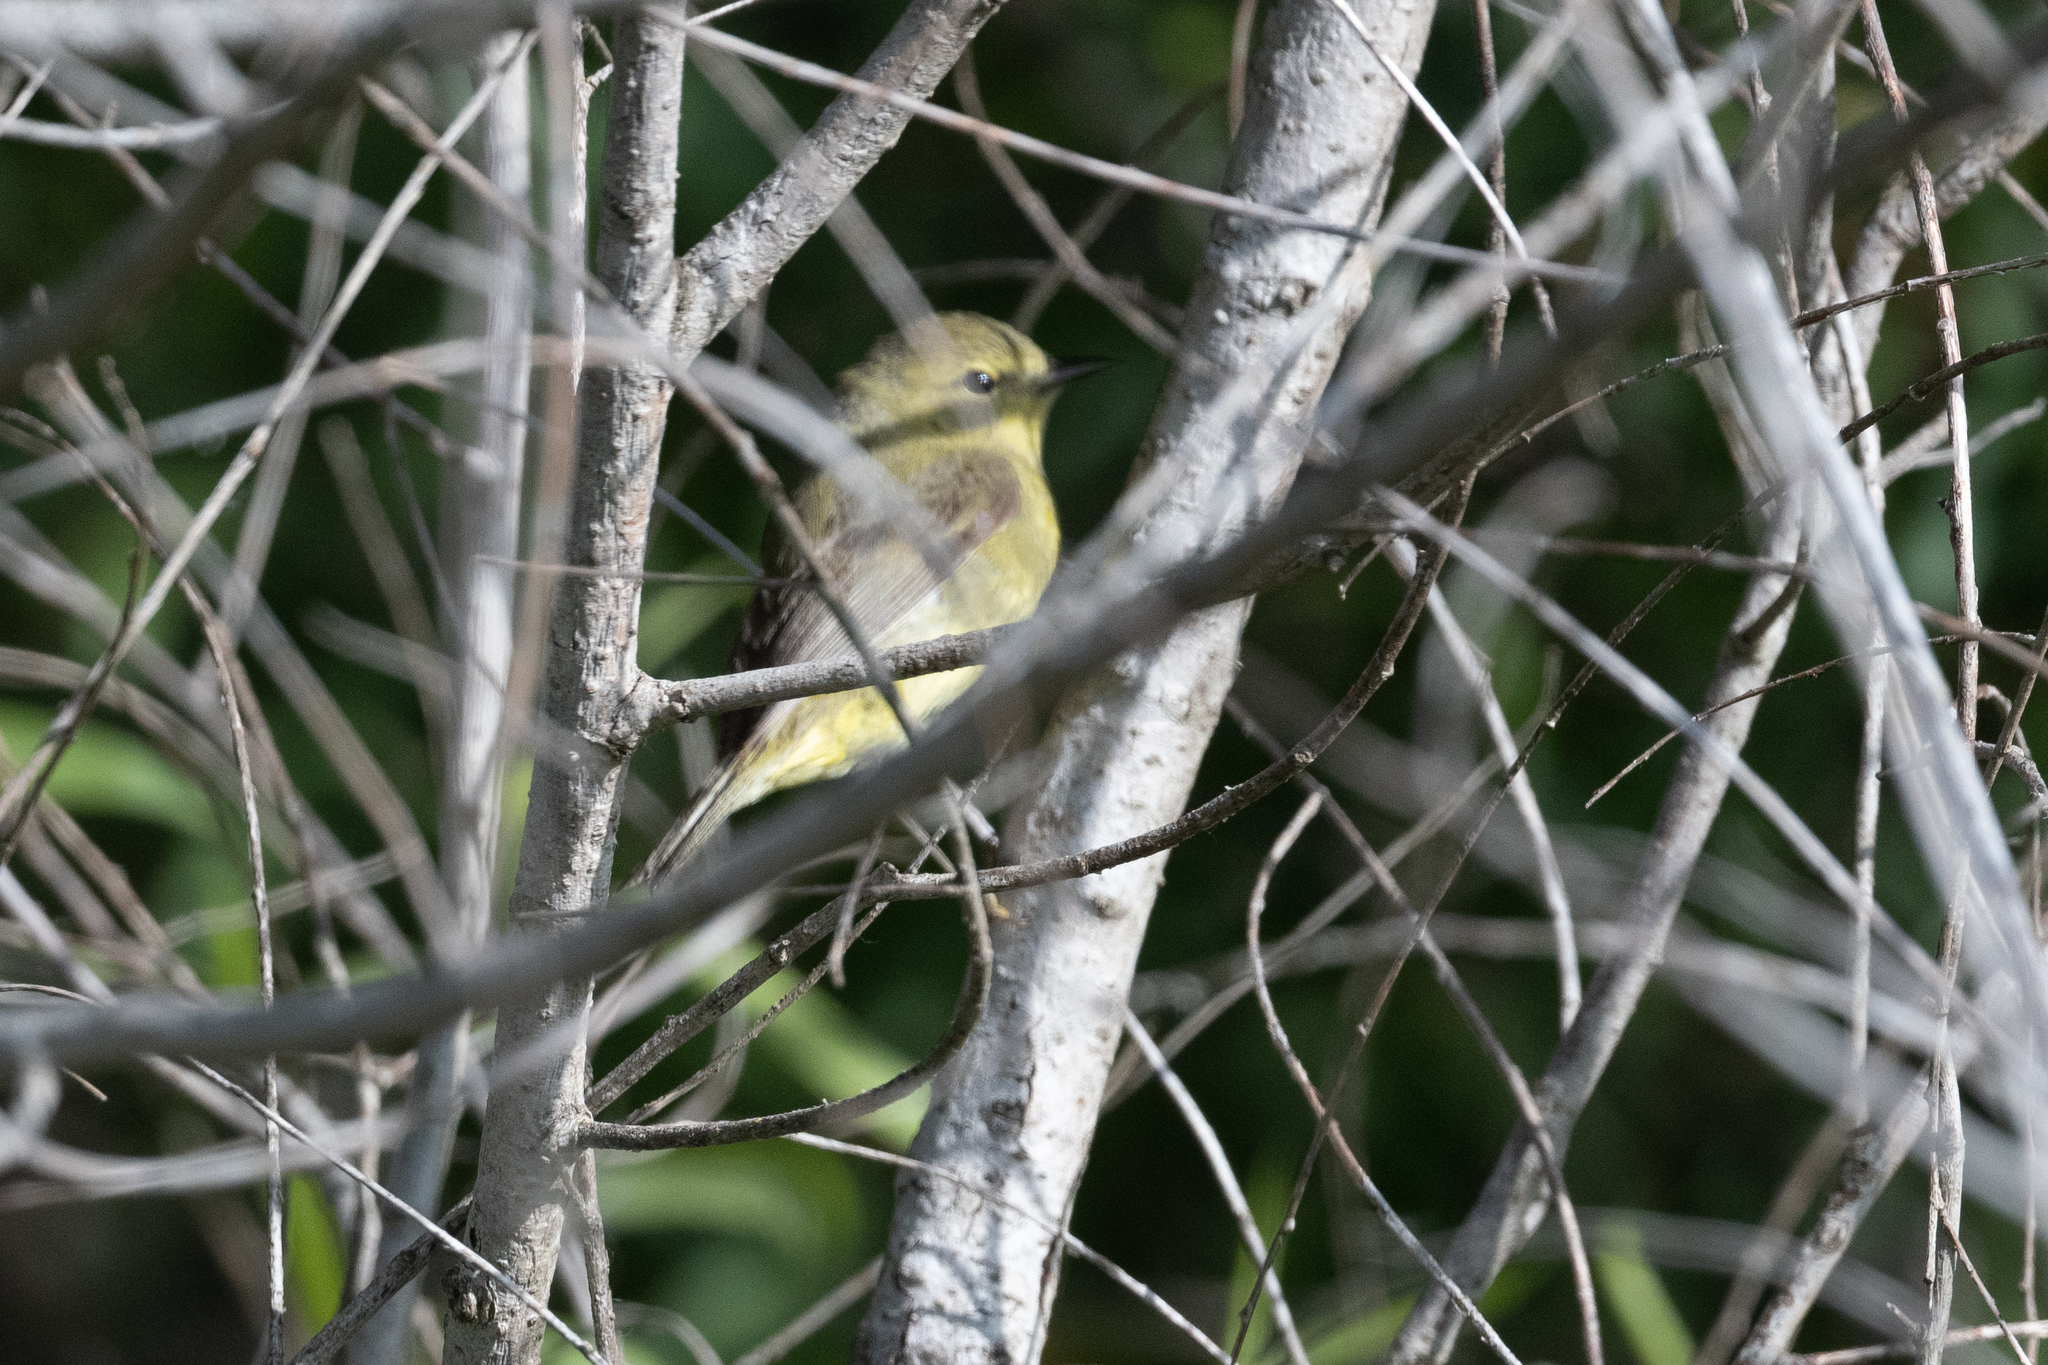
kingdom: Animalia
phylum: Chordata
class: Aves
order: Passeriformes
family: Parulidae
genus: Leiothlypis
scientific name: Leiothlypis celata
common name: Orange-crowned warbler
